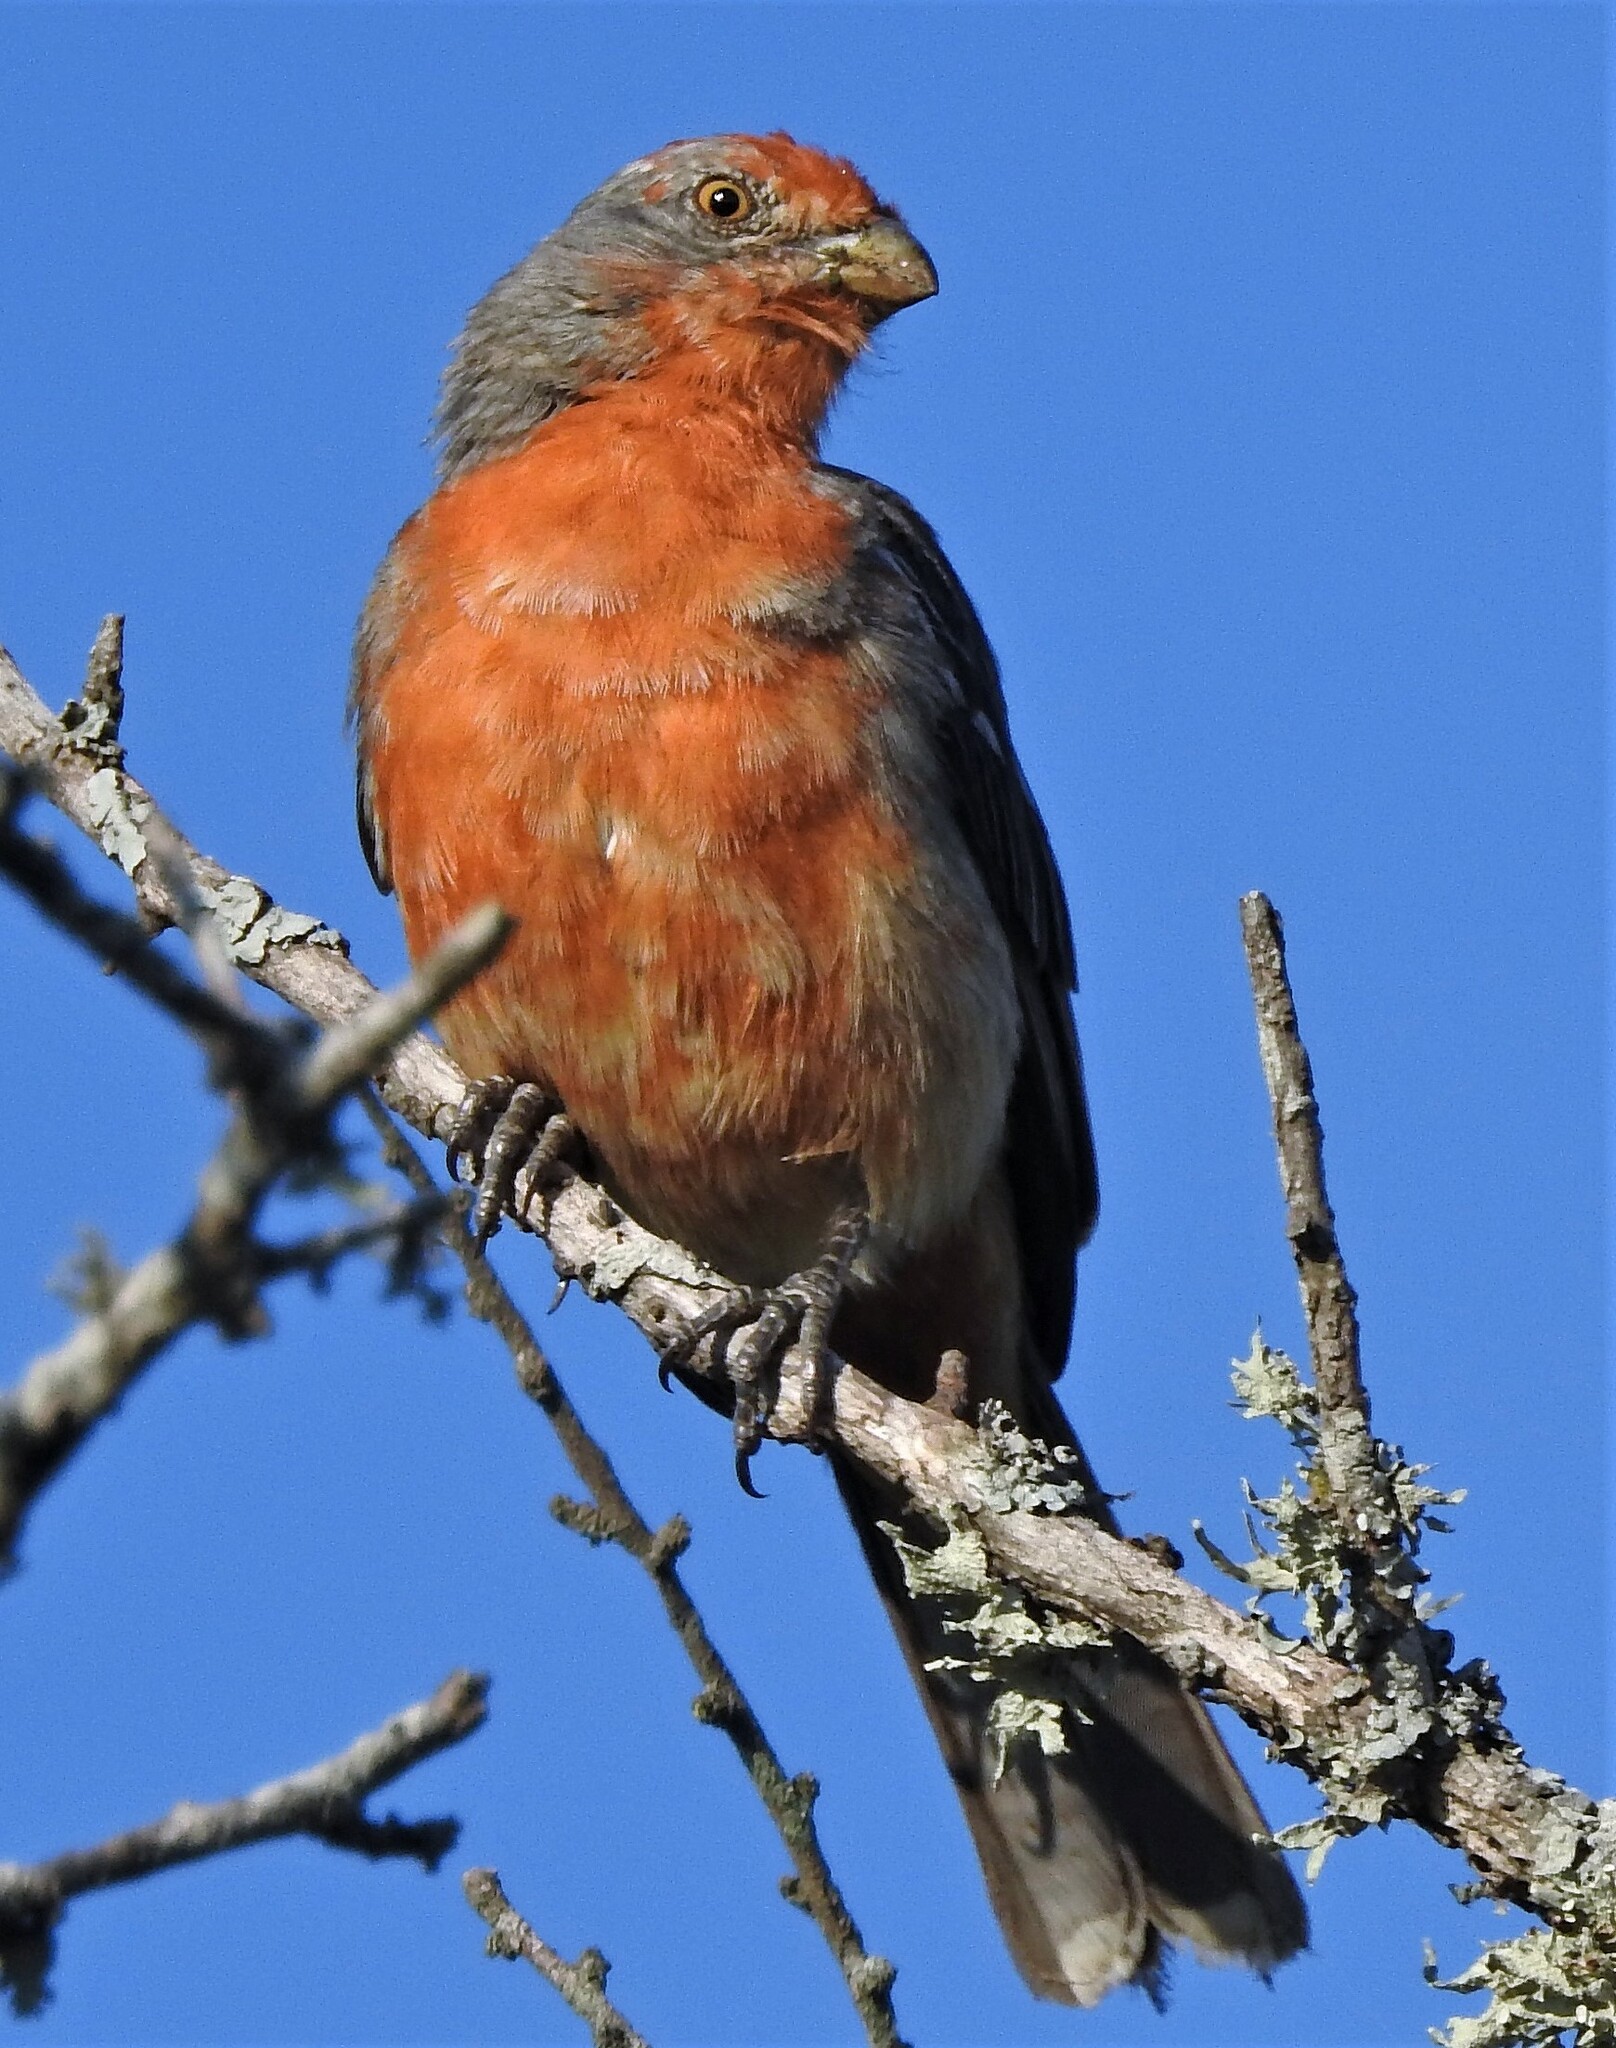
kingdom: Animalia
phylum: Chordata
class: Aves
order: Passeriformes
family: Cotingidae
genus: Phytotoma
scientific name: Phytotoma rutila
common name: White-tipped plantcutter
